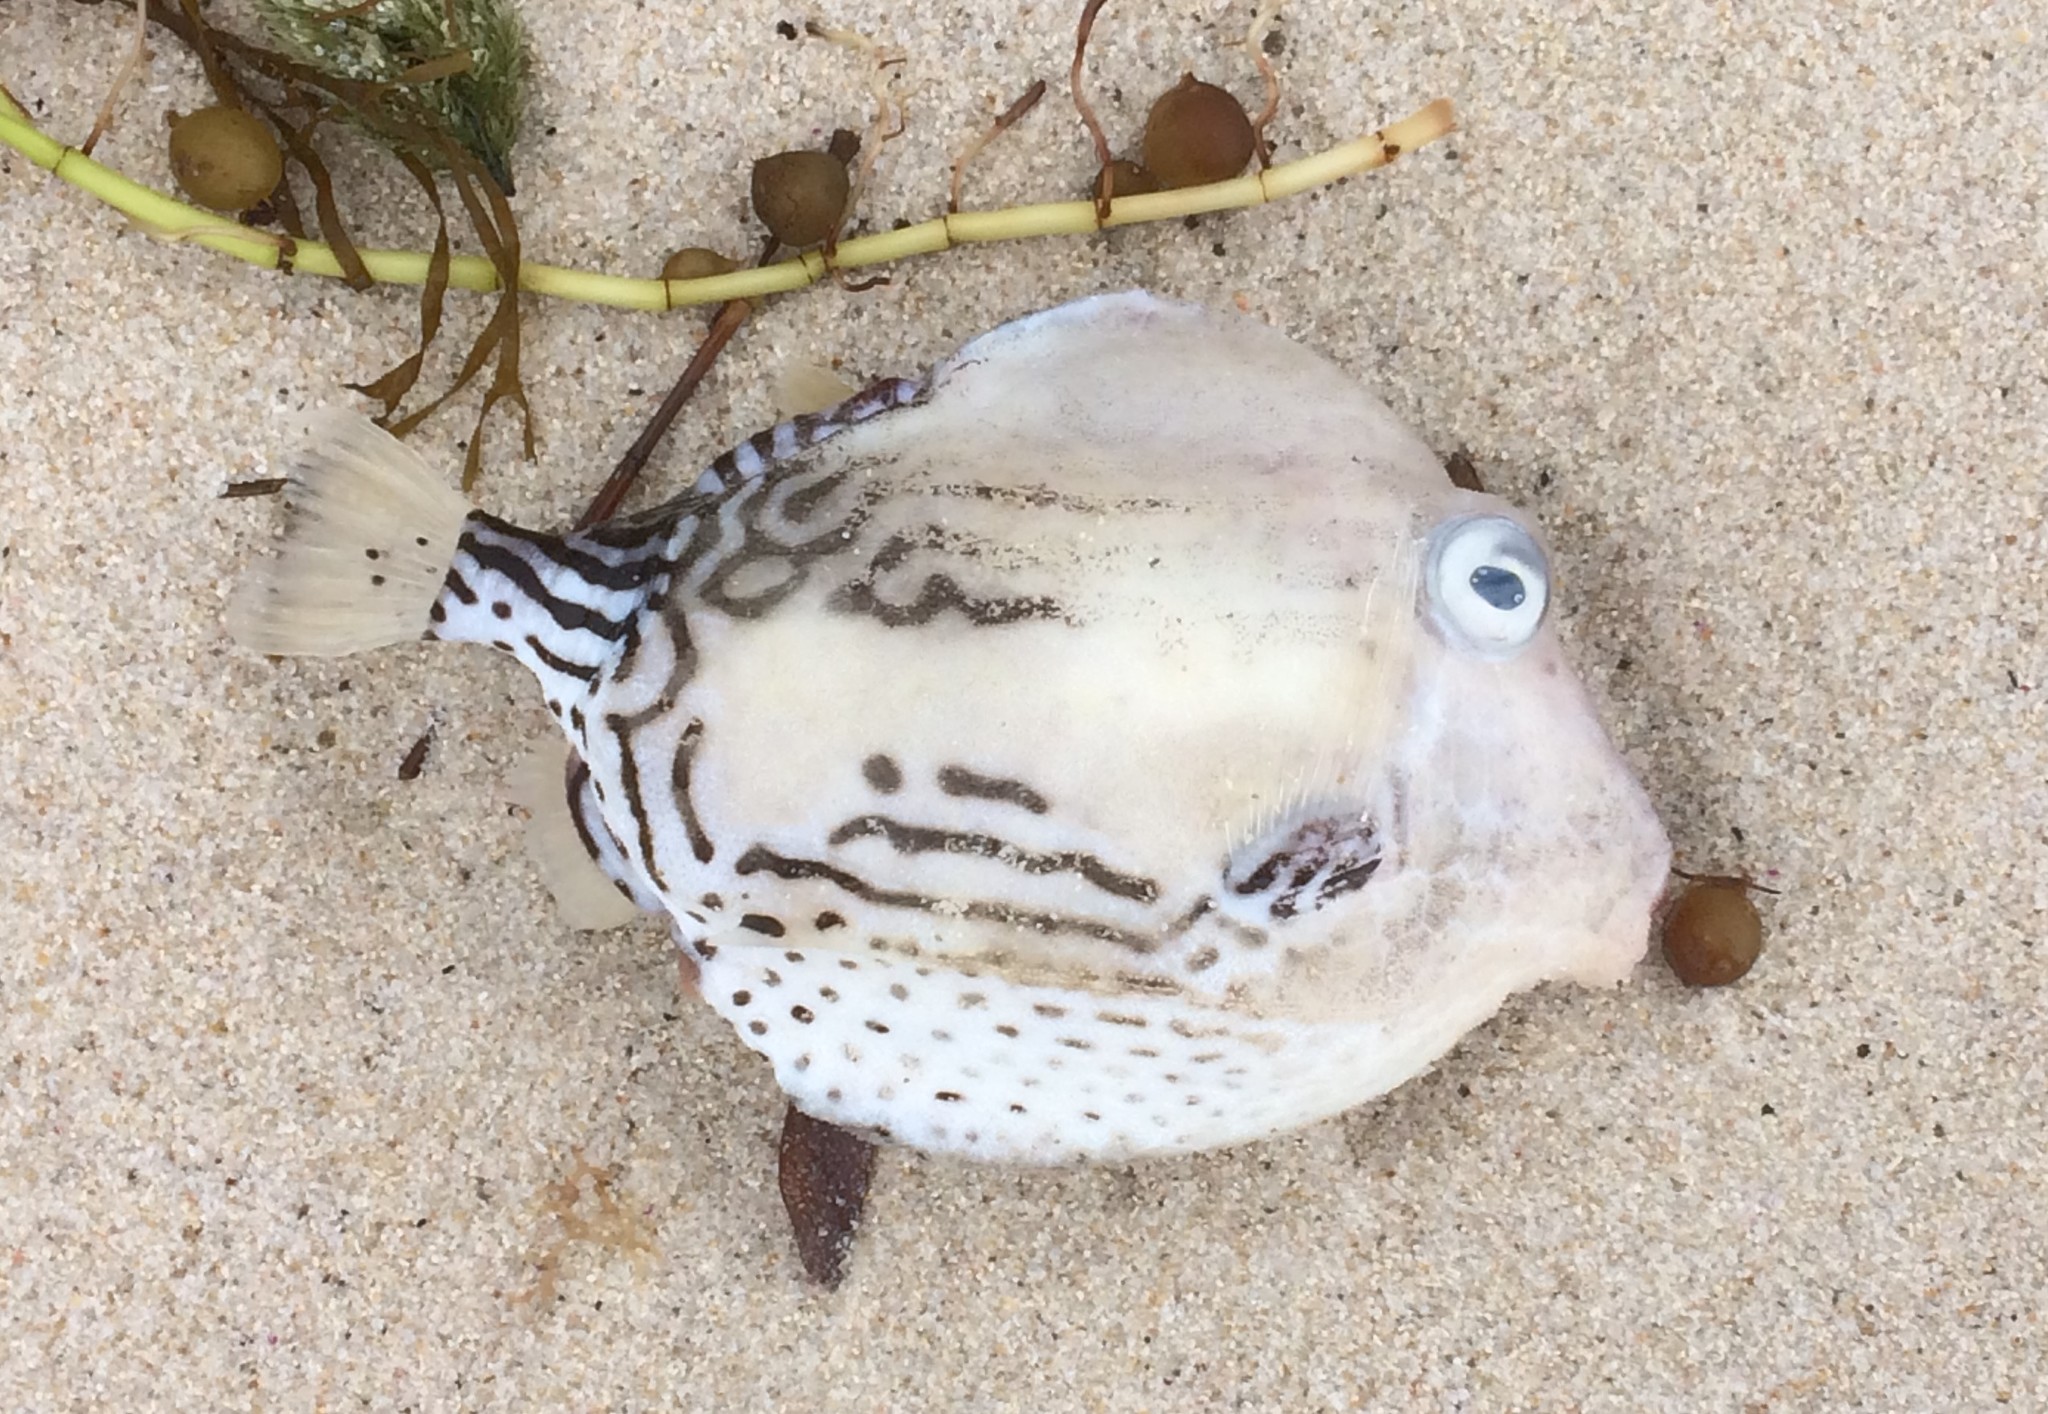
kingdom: Animalia
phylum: Chordata
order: Tetraodontiformes
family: Aracanidae
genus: Caprichthys
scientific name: Caprichthys gymnura
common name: Rigid boxfish
